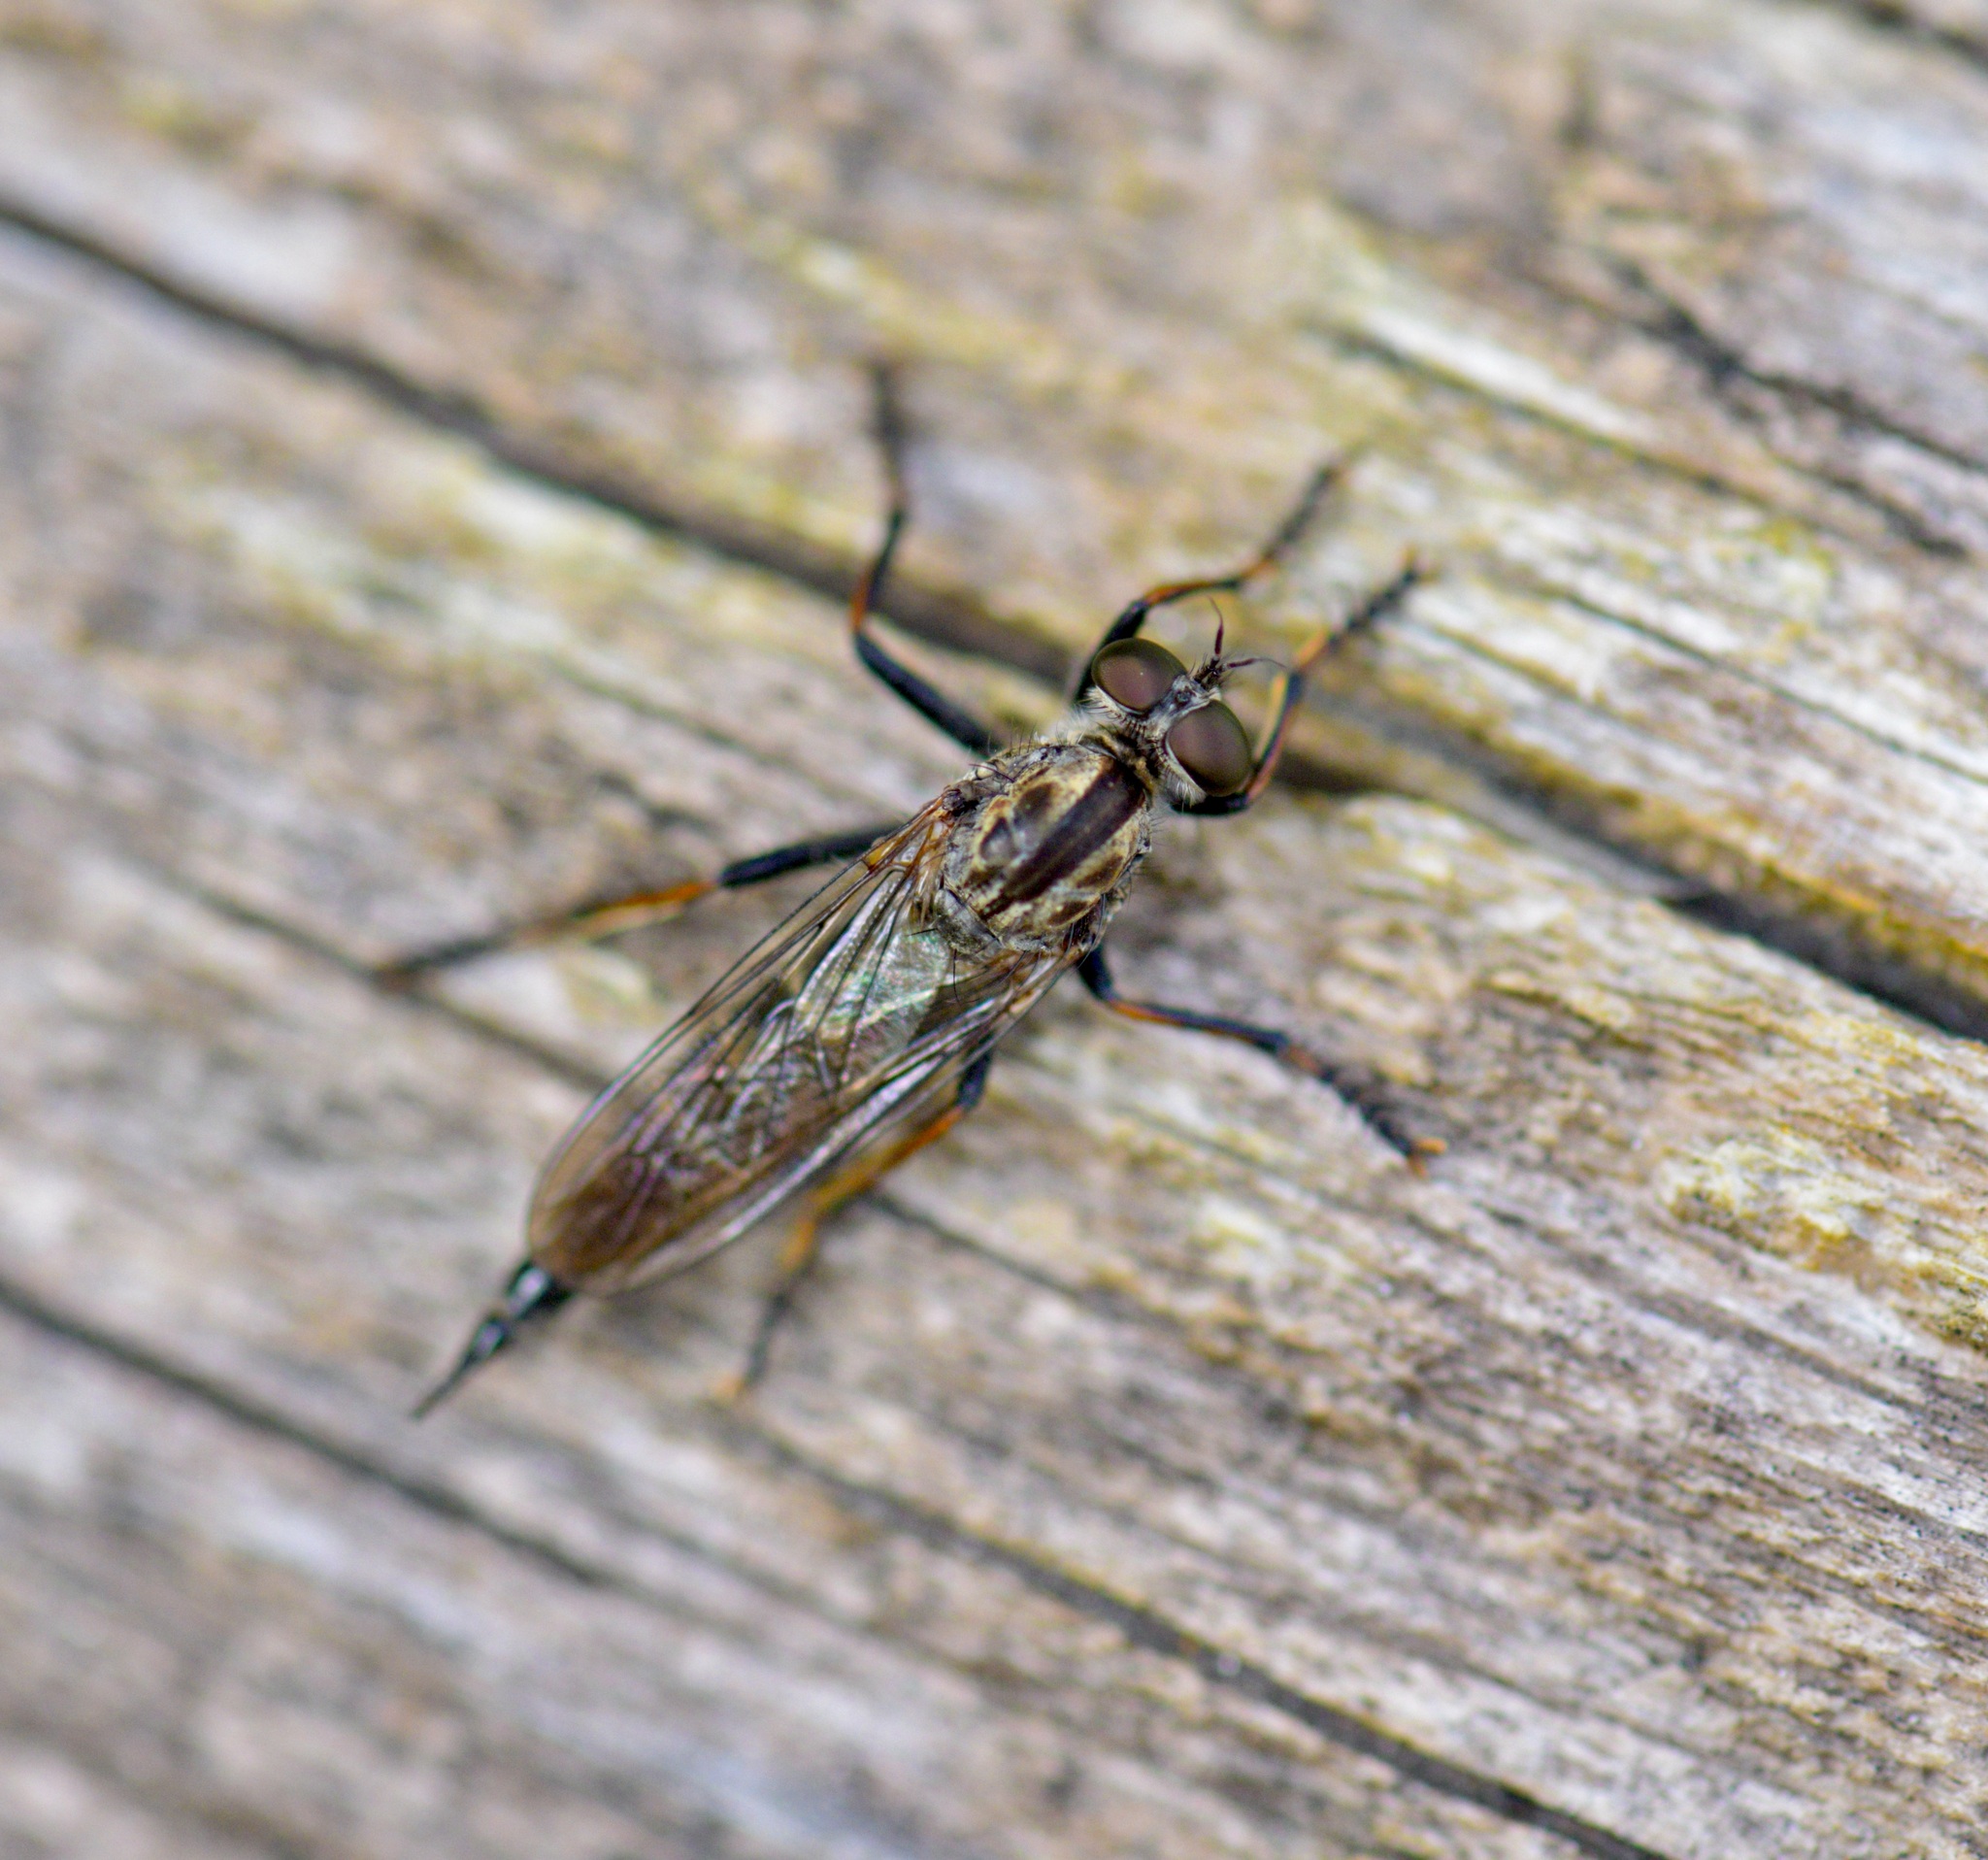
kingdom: Animalia
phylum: Arthropoda
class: Insecta
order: Diptera
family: Asilidae
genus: Machimus
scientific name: Machimus sadyates
